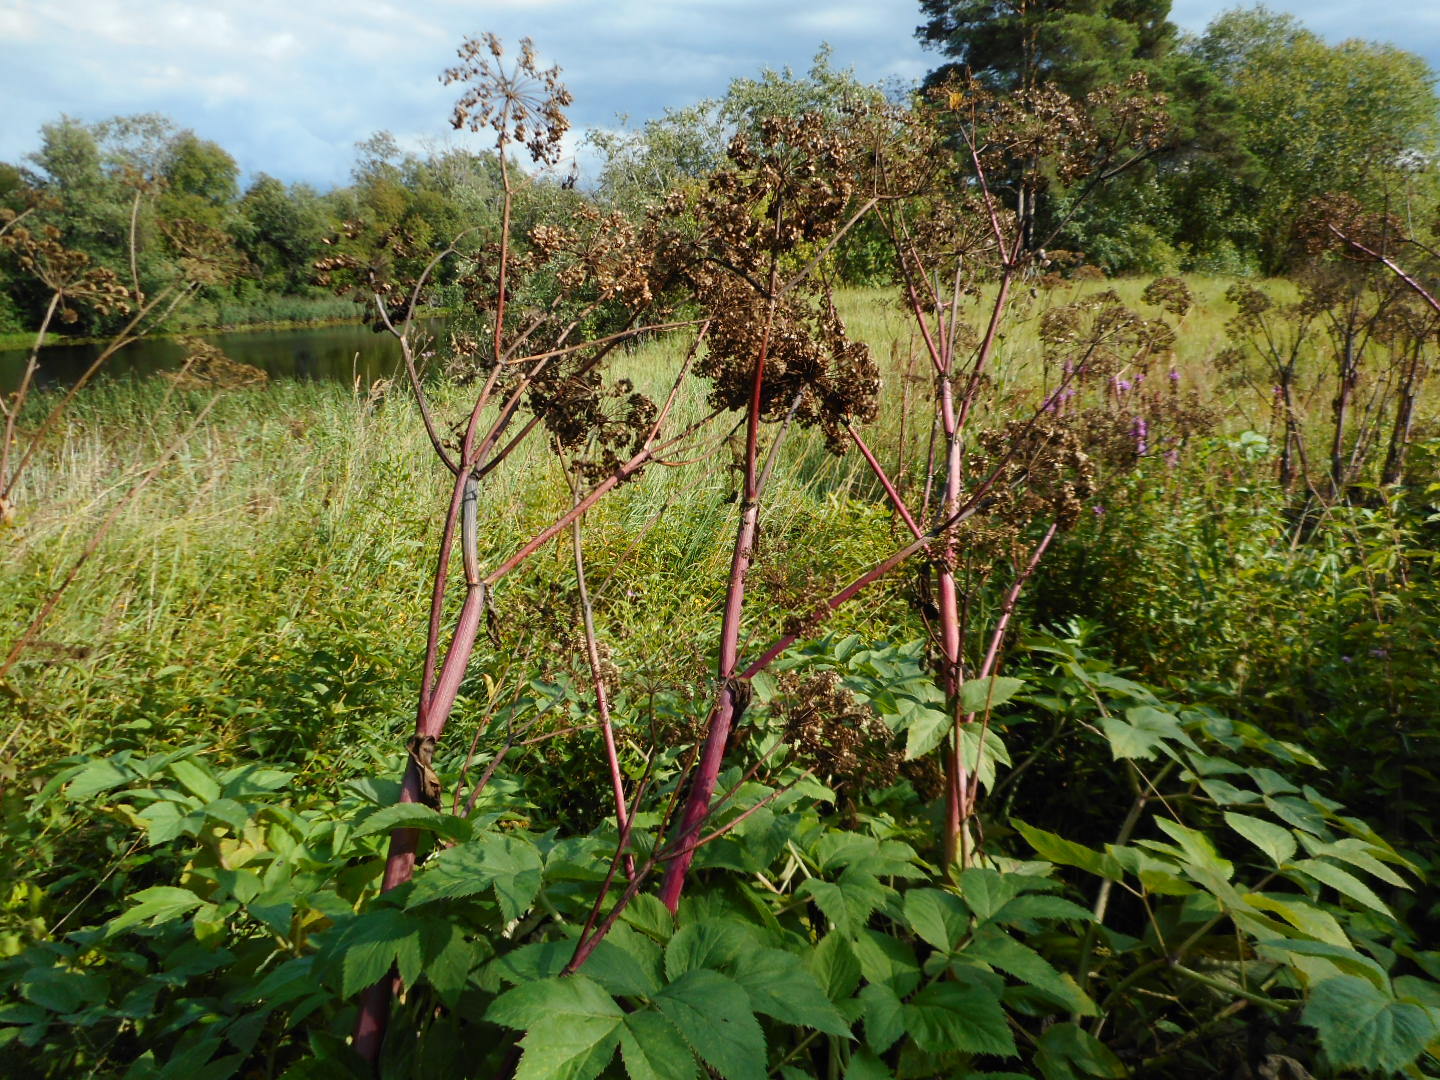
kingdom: Plantae
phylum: Tracheophyta
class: Magnoliopsida
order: Apiales
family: Apiaceae
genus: Angelica
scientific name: Angelica archangelica
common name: Garden angelica
